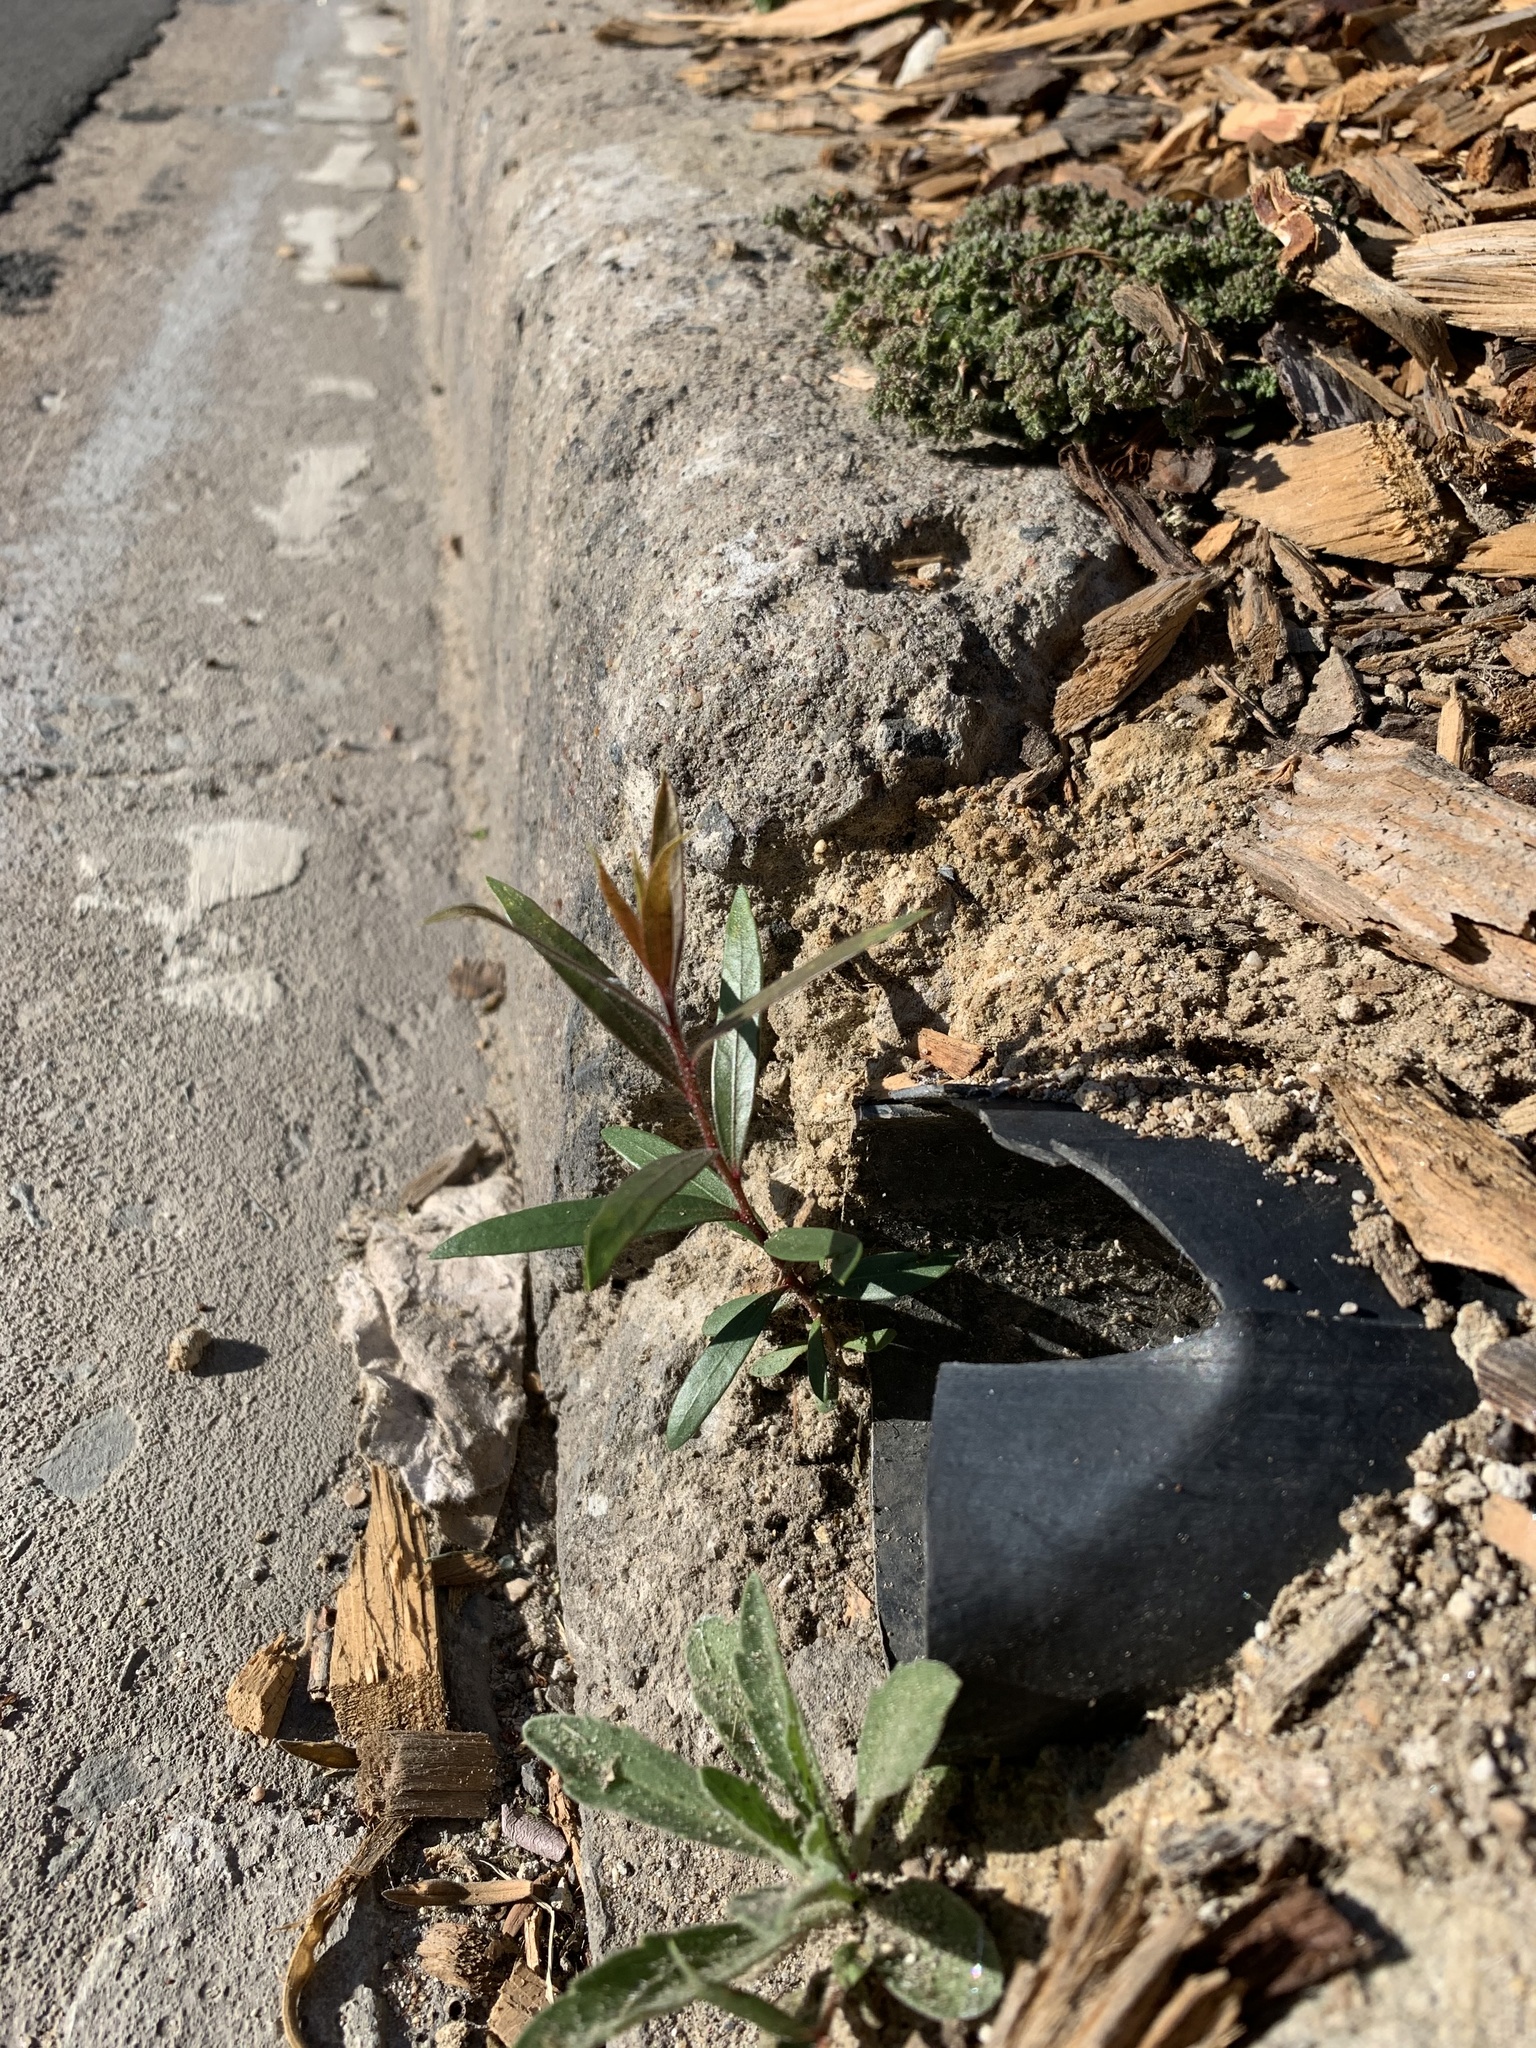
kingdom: Plantae
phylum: Tracheophyta
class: Magnoliopsida
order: Myrtales
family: Myrtaceae
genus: Callistemon
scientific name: Callistemon viminalis
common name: Drooping bottlebrush
